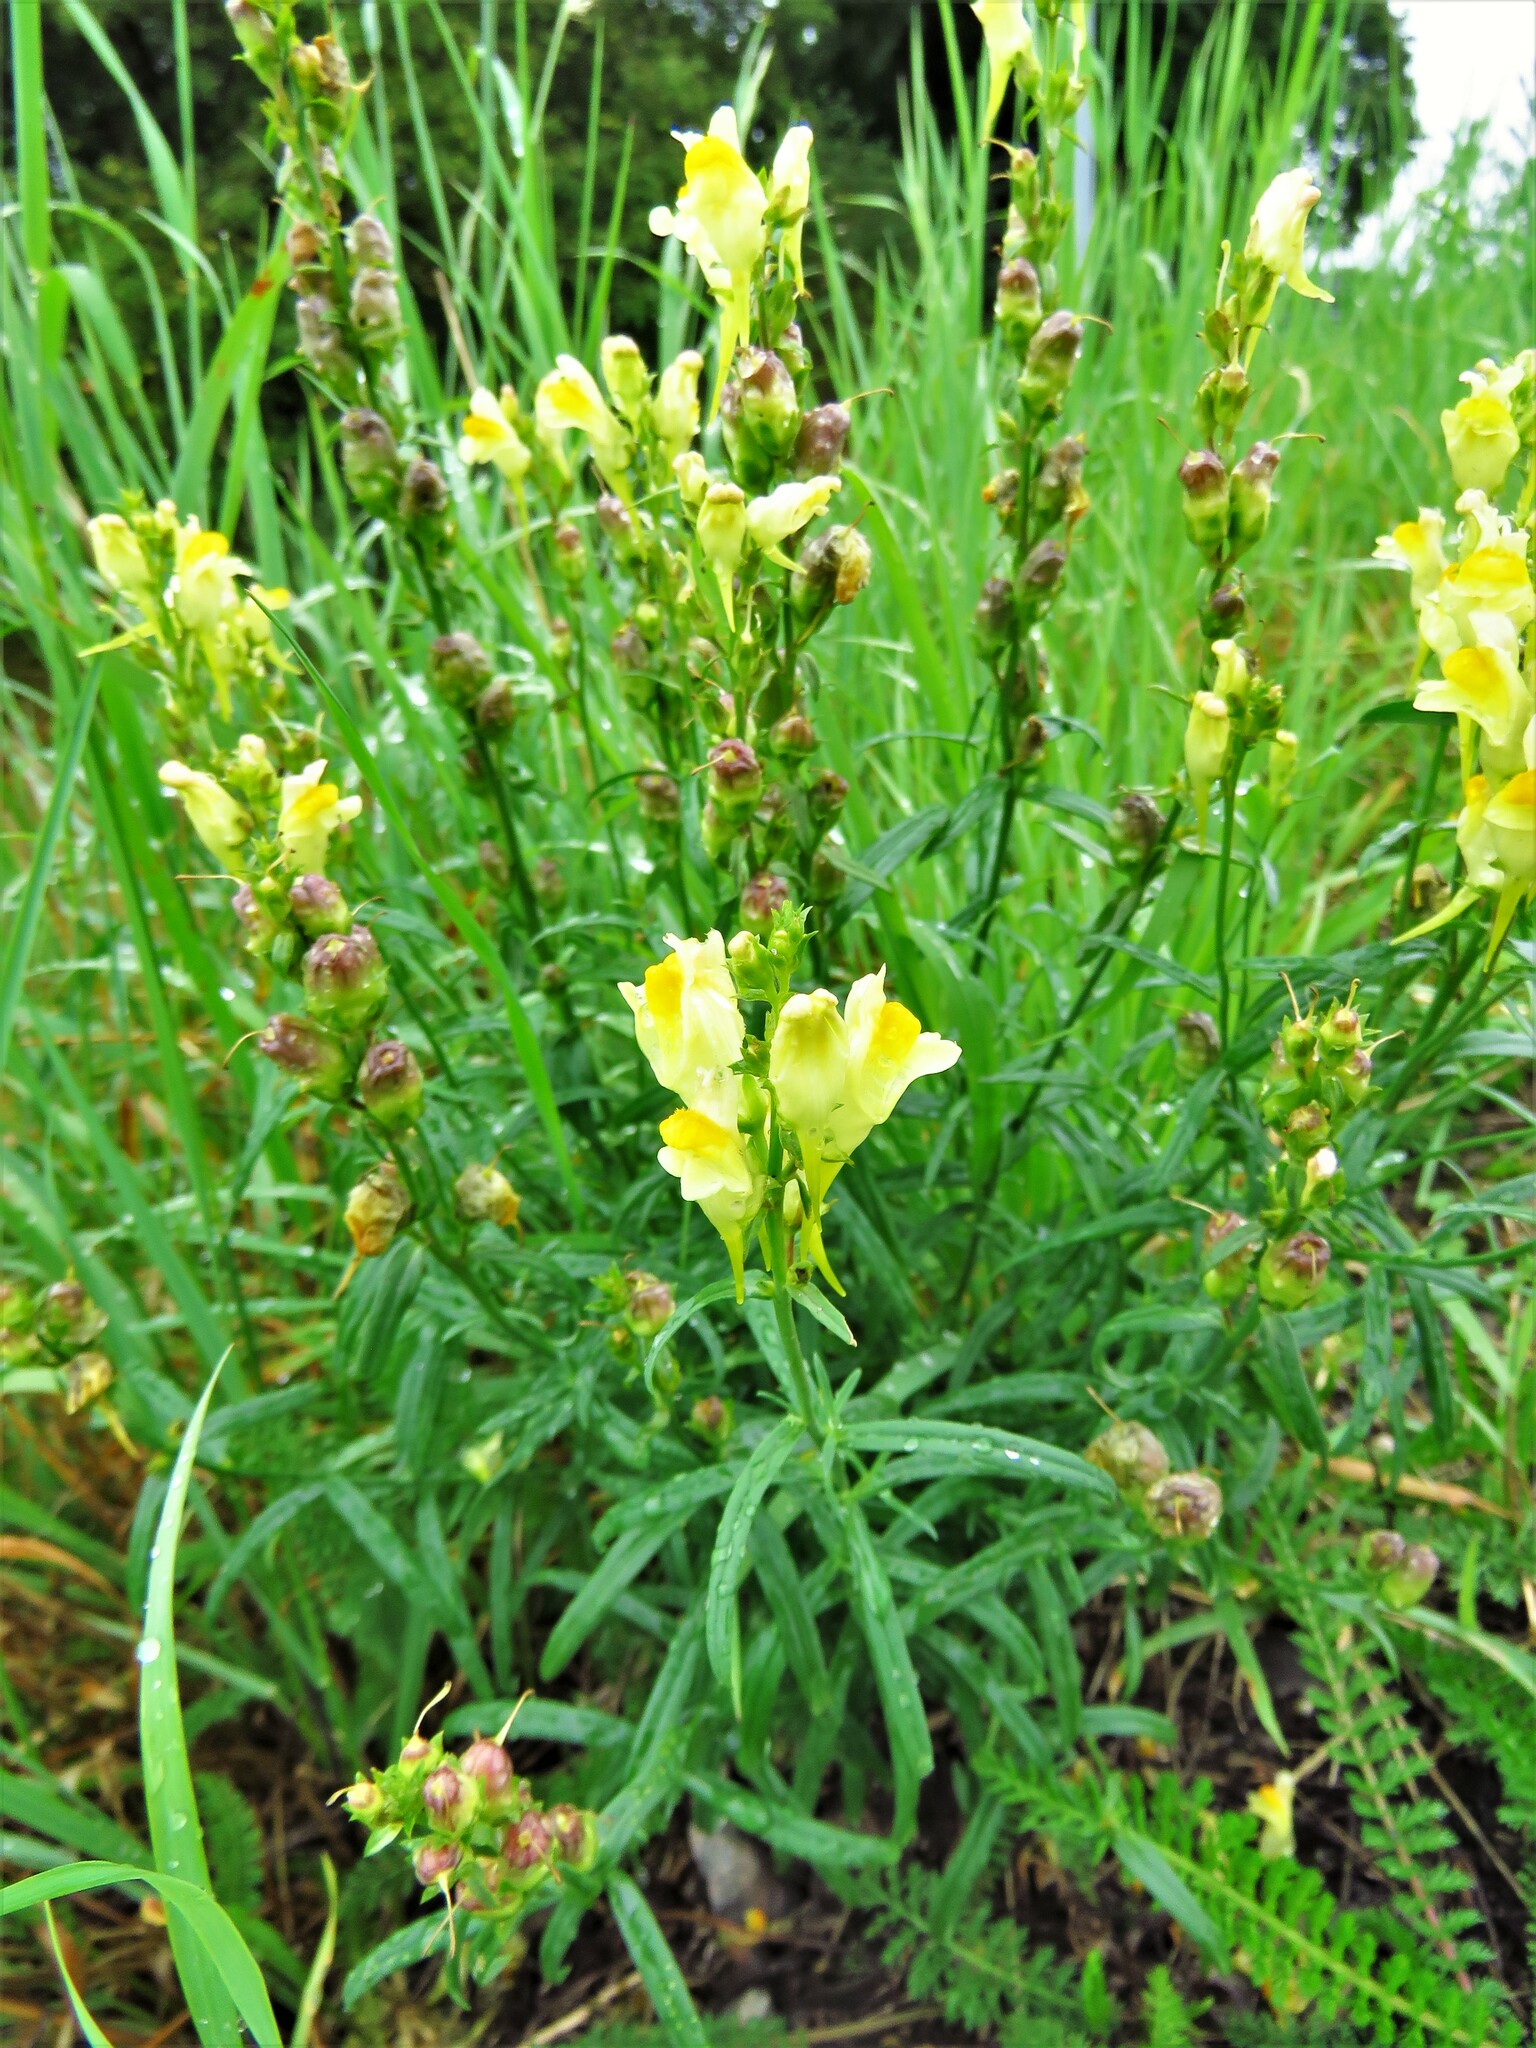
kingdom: Plantae
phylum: Tracheophyta
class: Magnoliopsida
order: Lamiales
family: Plantaginaceae
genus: Linaria
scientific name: Linaria vulgaris
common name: Butter and eggs
